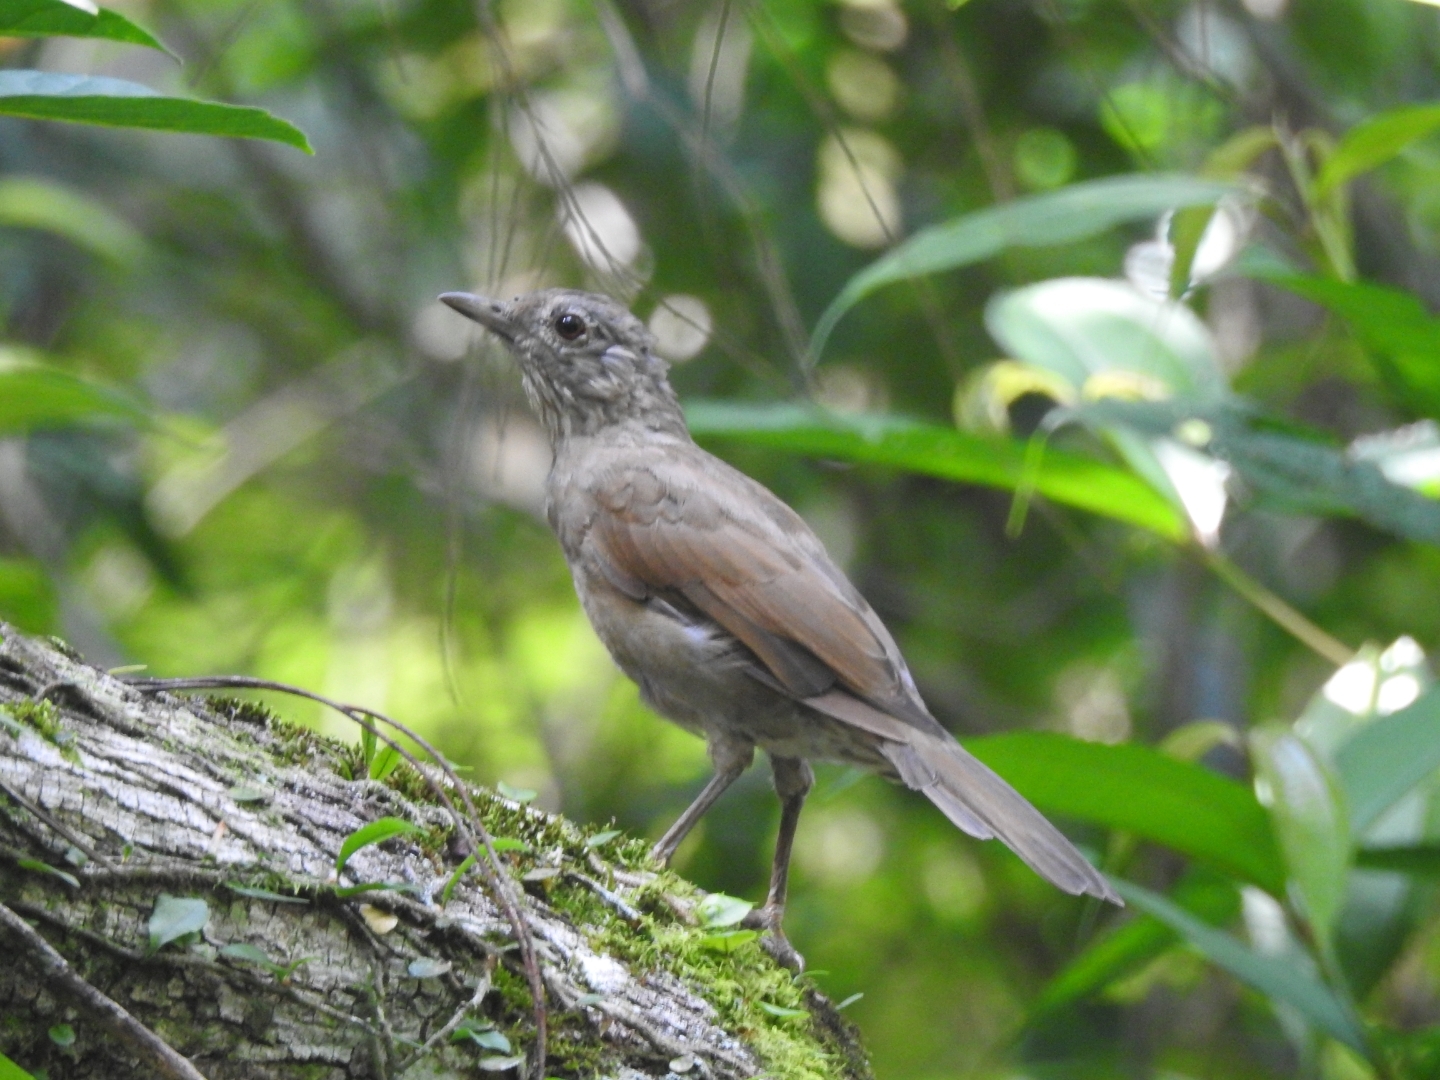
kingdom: Animalia
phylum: Chordata
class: Aves
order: Passeriformes
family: Turdidae
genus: Turdus
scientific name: Turdus leucomelas
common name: Pale-breasted thrush
